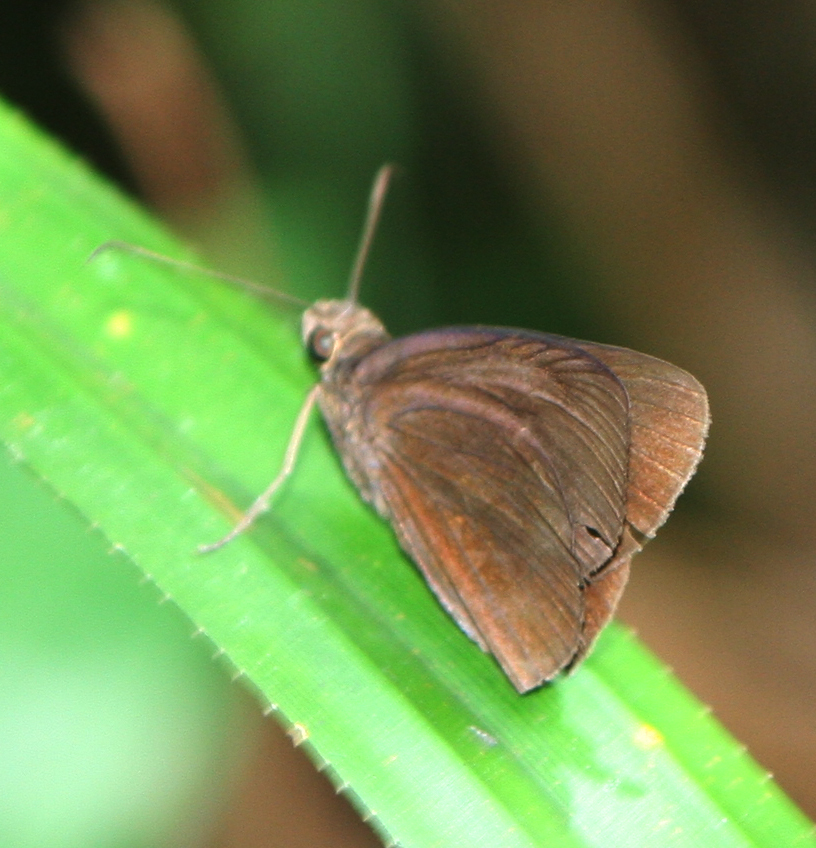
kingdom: Animalia
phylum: Arthropoda
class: Insecta
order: Lepidoptera
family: Hesperiidae
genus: Ancistroides
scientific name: Ancistroides nigrita
